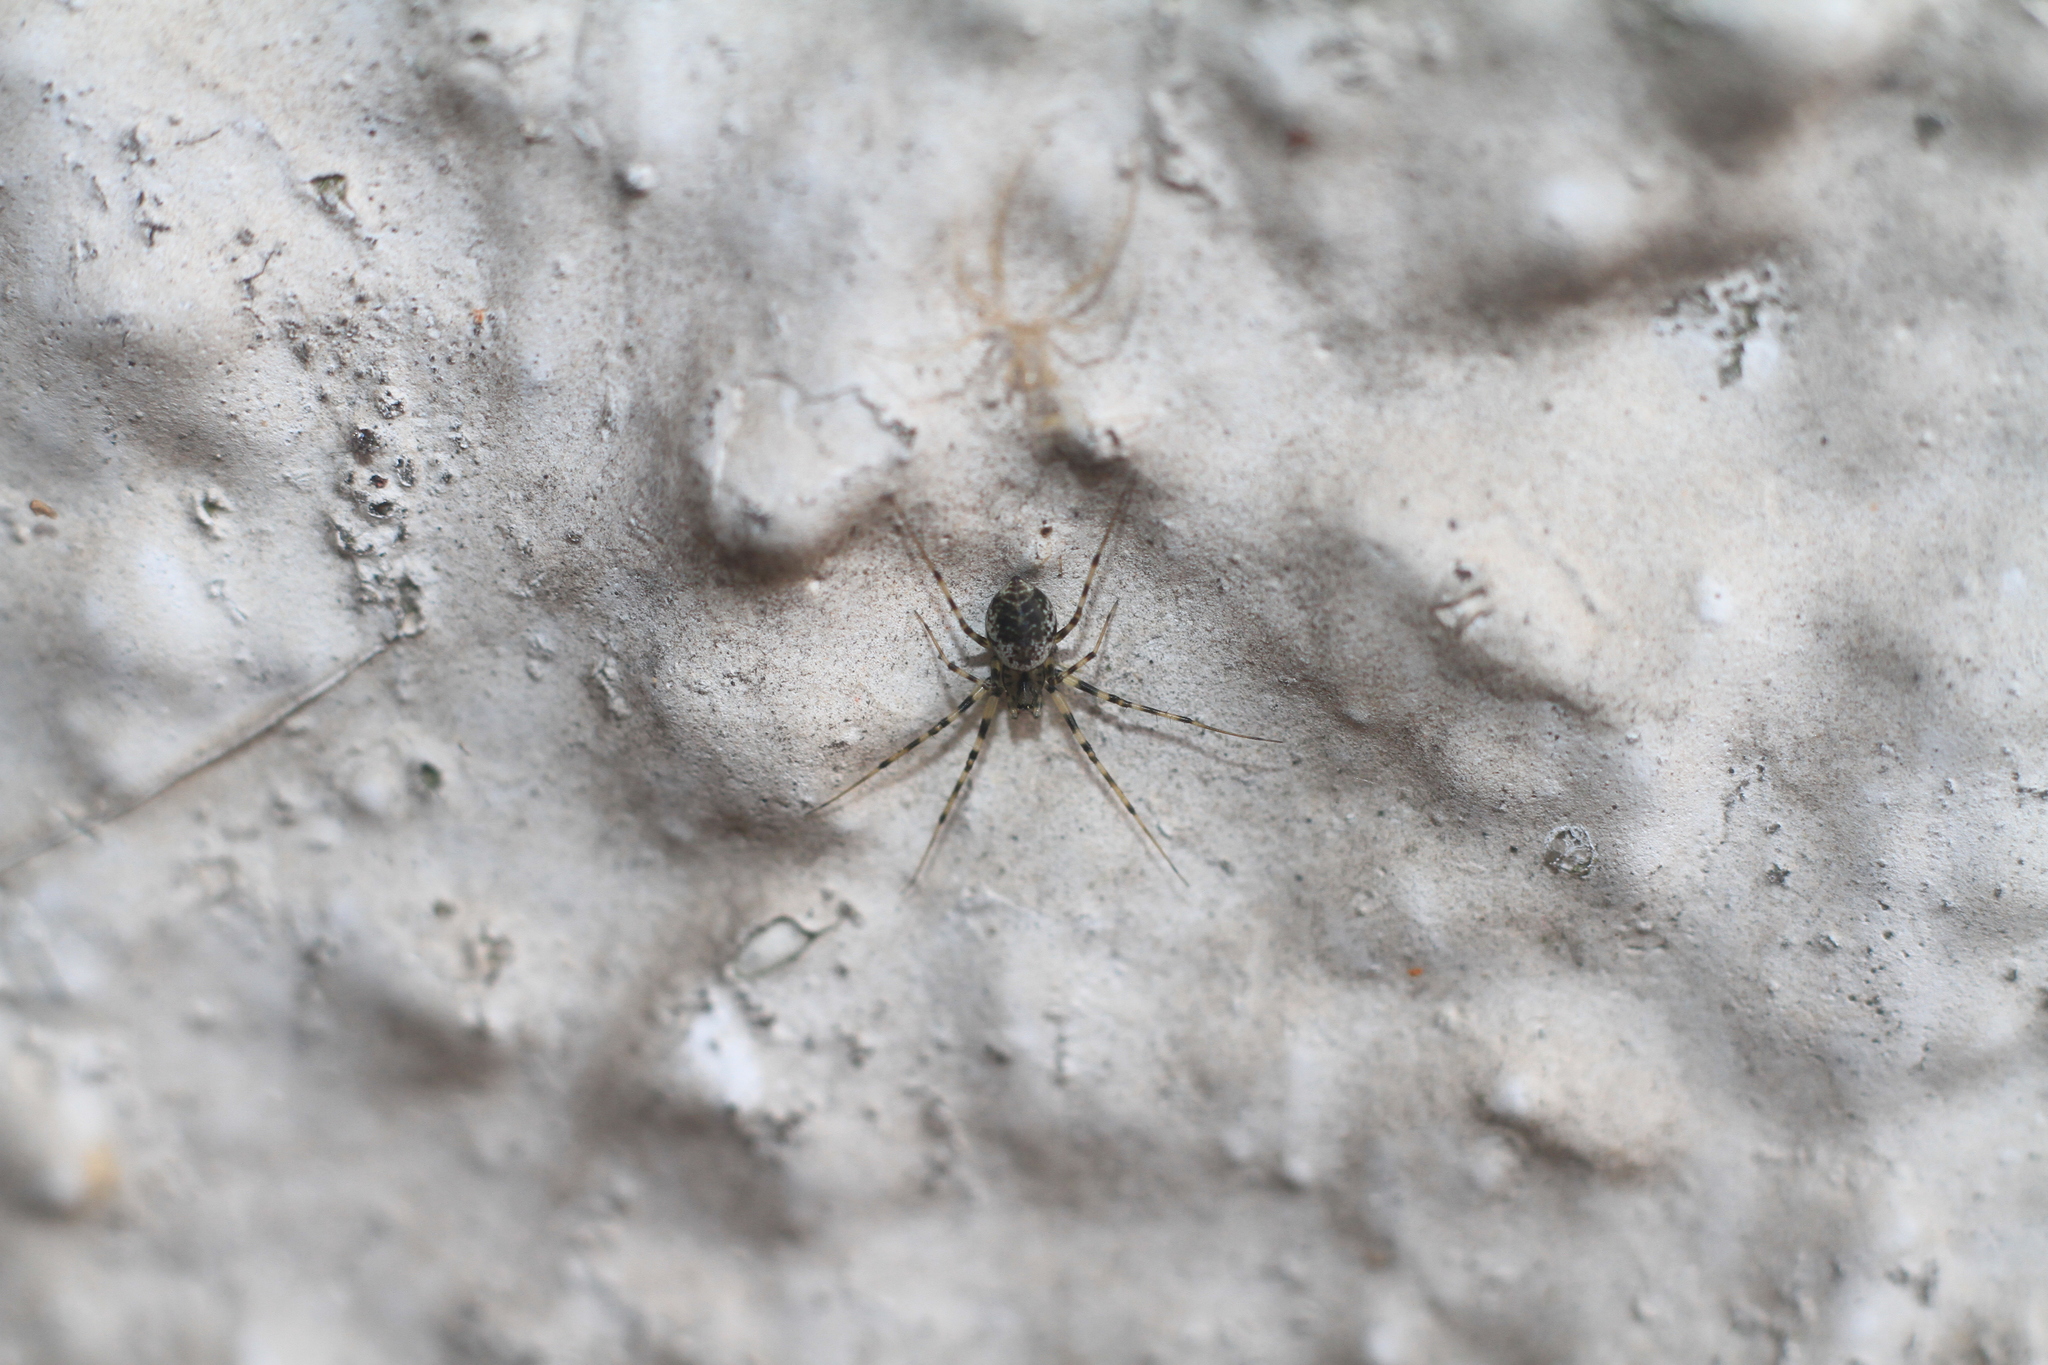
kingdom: Animalia
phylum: Arthropoda
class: Arachnida
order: Araneae
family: Linyphiidae
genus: Drapetisca
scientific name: Drapetisca socialis
